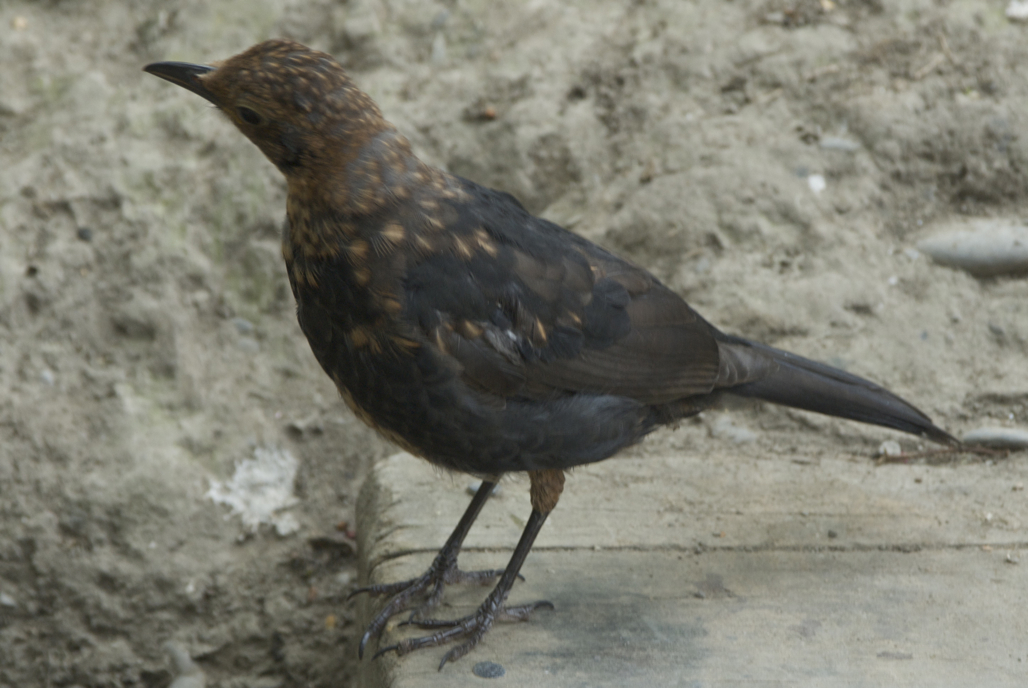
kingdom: Animalia
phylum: Chordata
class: Aves
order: Passeriformes
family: Turdidae
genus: Turdus
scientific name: Turdus merula
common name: Common blackbird
